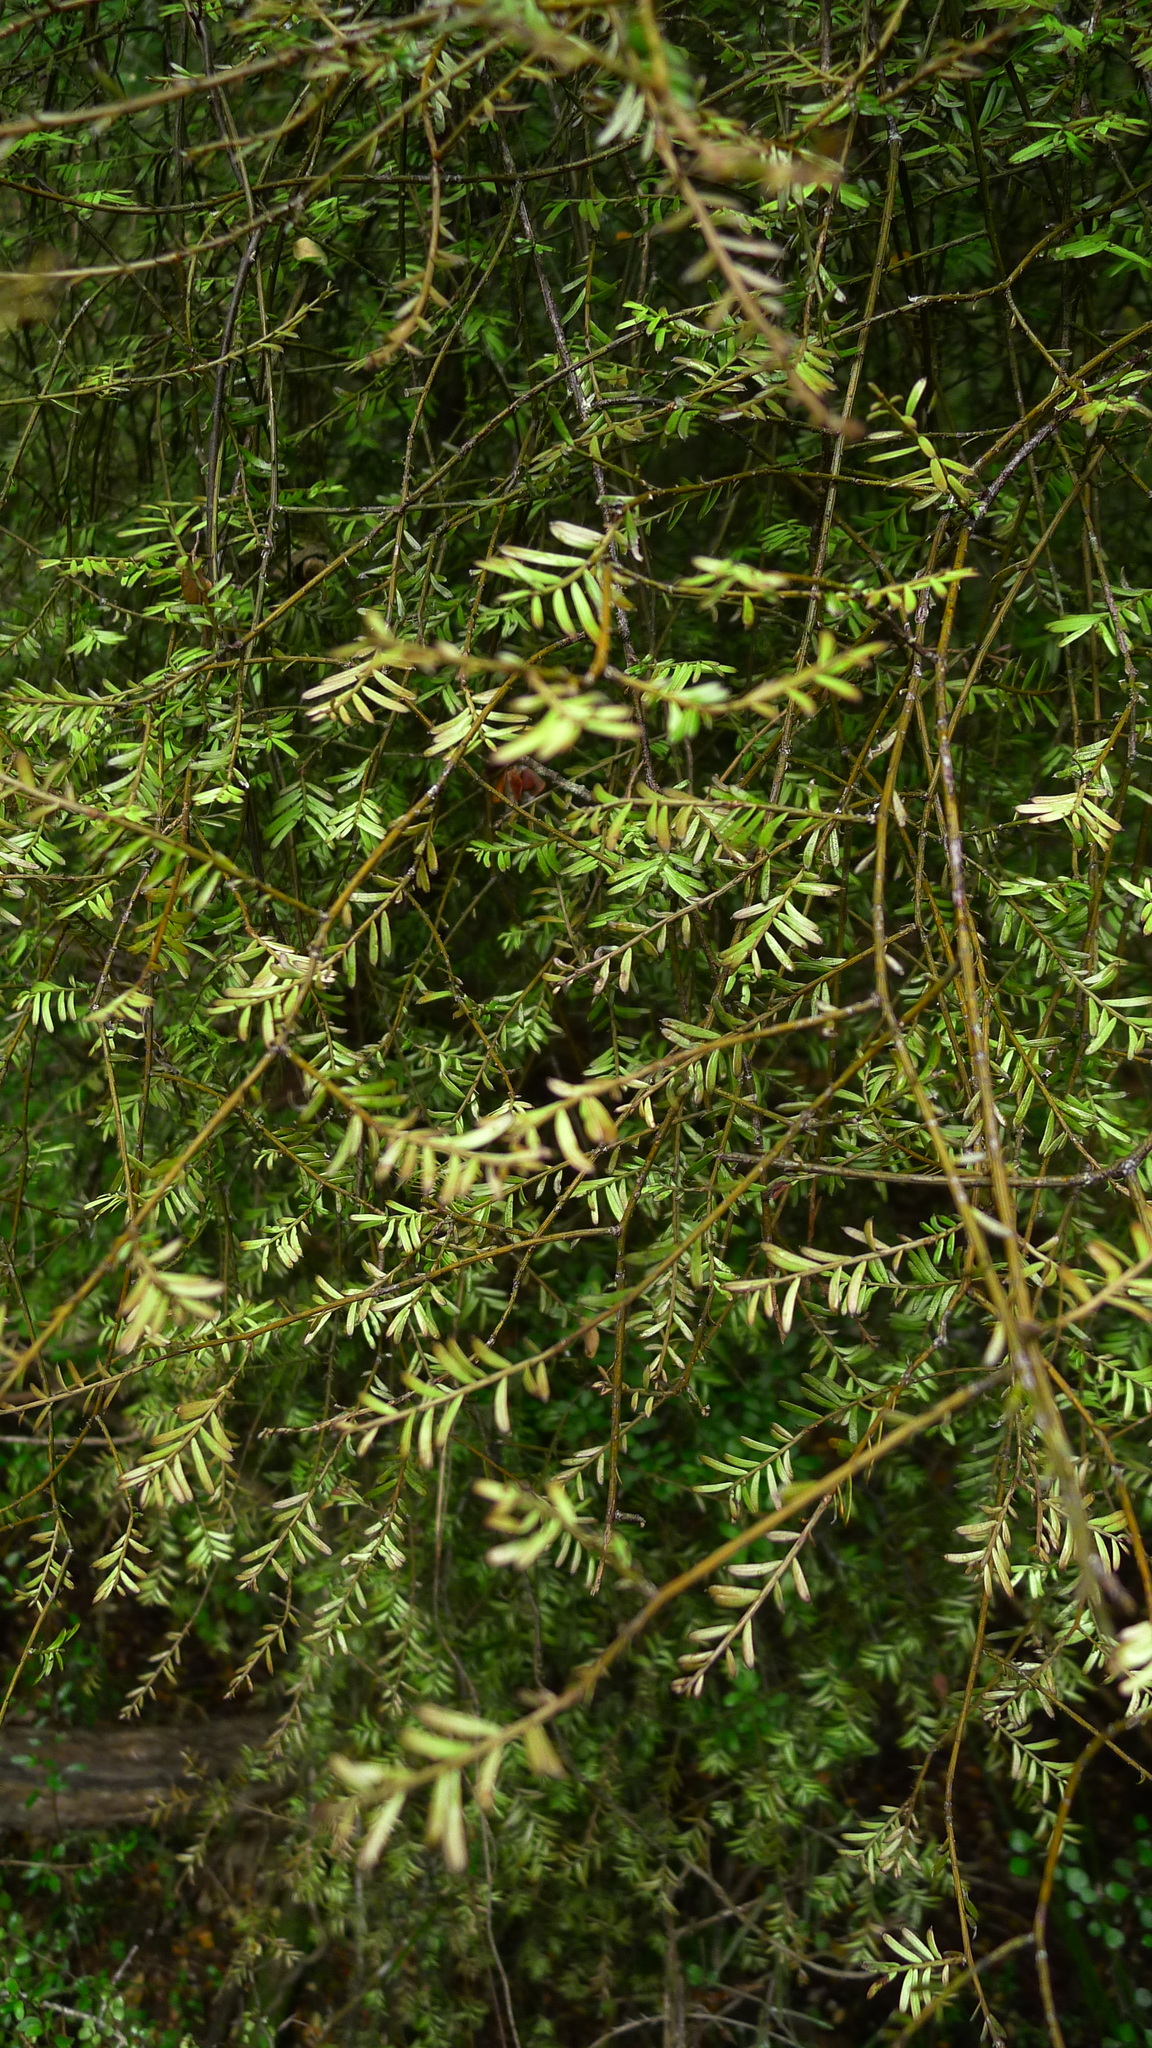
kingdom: Plantae
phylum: Tracheophyta
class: Pinopsida
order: Pinales
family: Podocarpaceae
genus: Prumnopitys
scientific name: Prumnopitys taxifolia
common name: Matai
